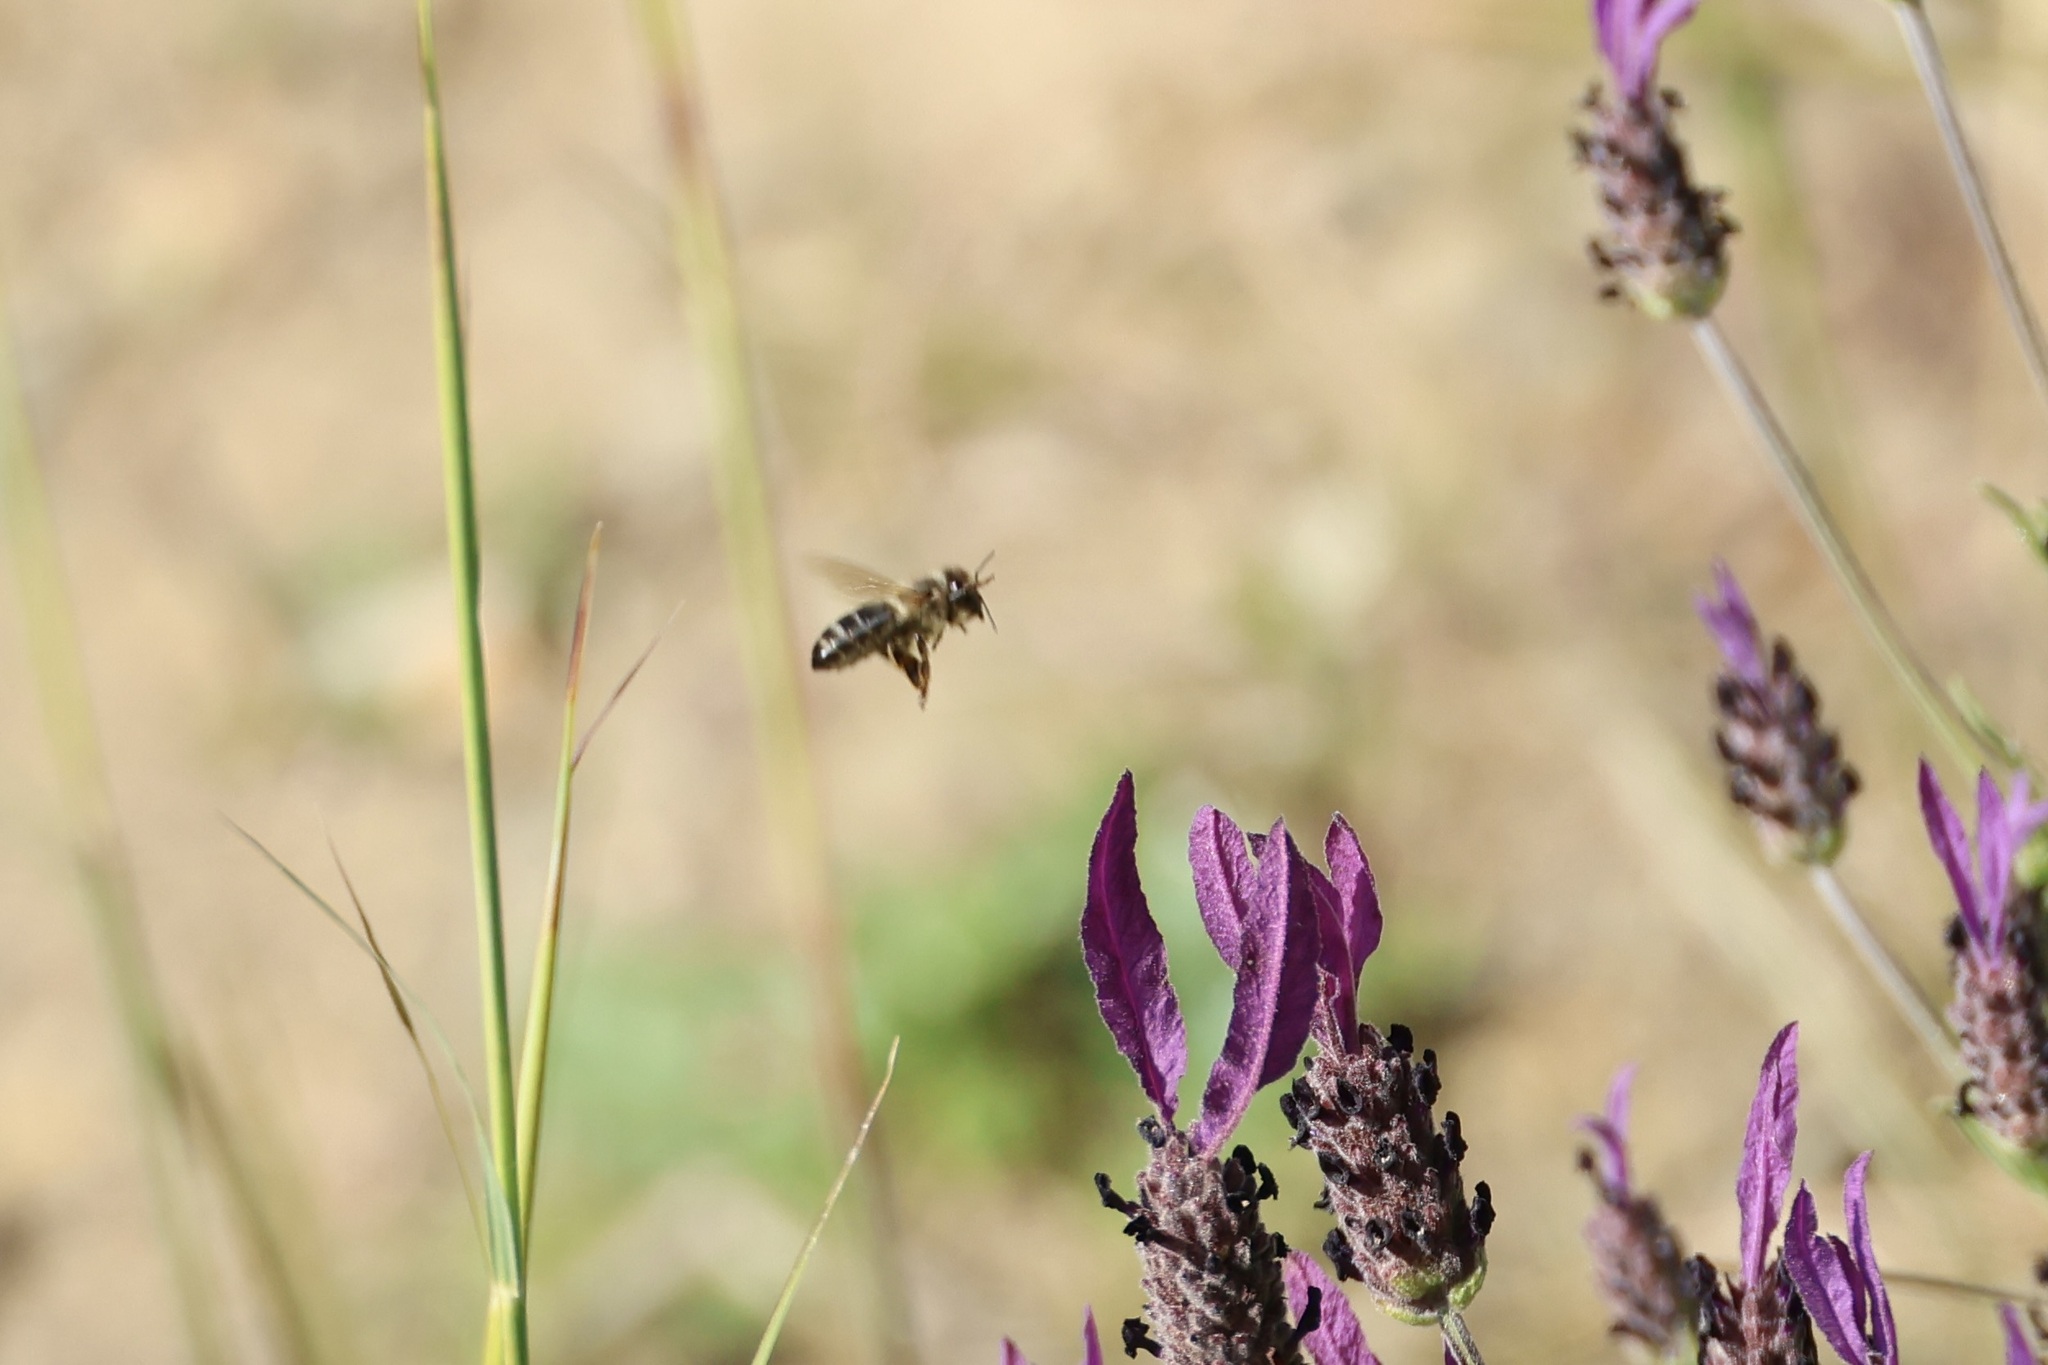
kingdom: Animalia
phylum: Arthropoda
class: Insecta
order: Hymenoptera
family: Apidae
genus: Apis
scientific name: Apis mellifera
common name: Honey bee
